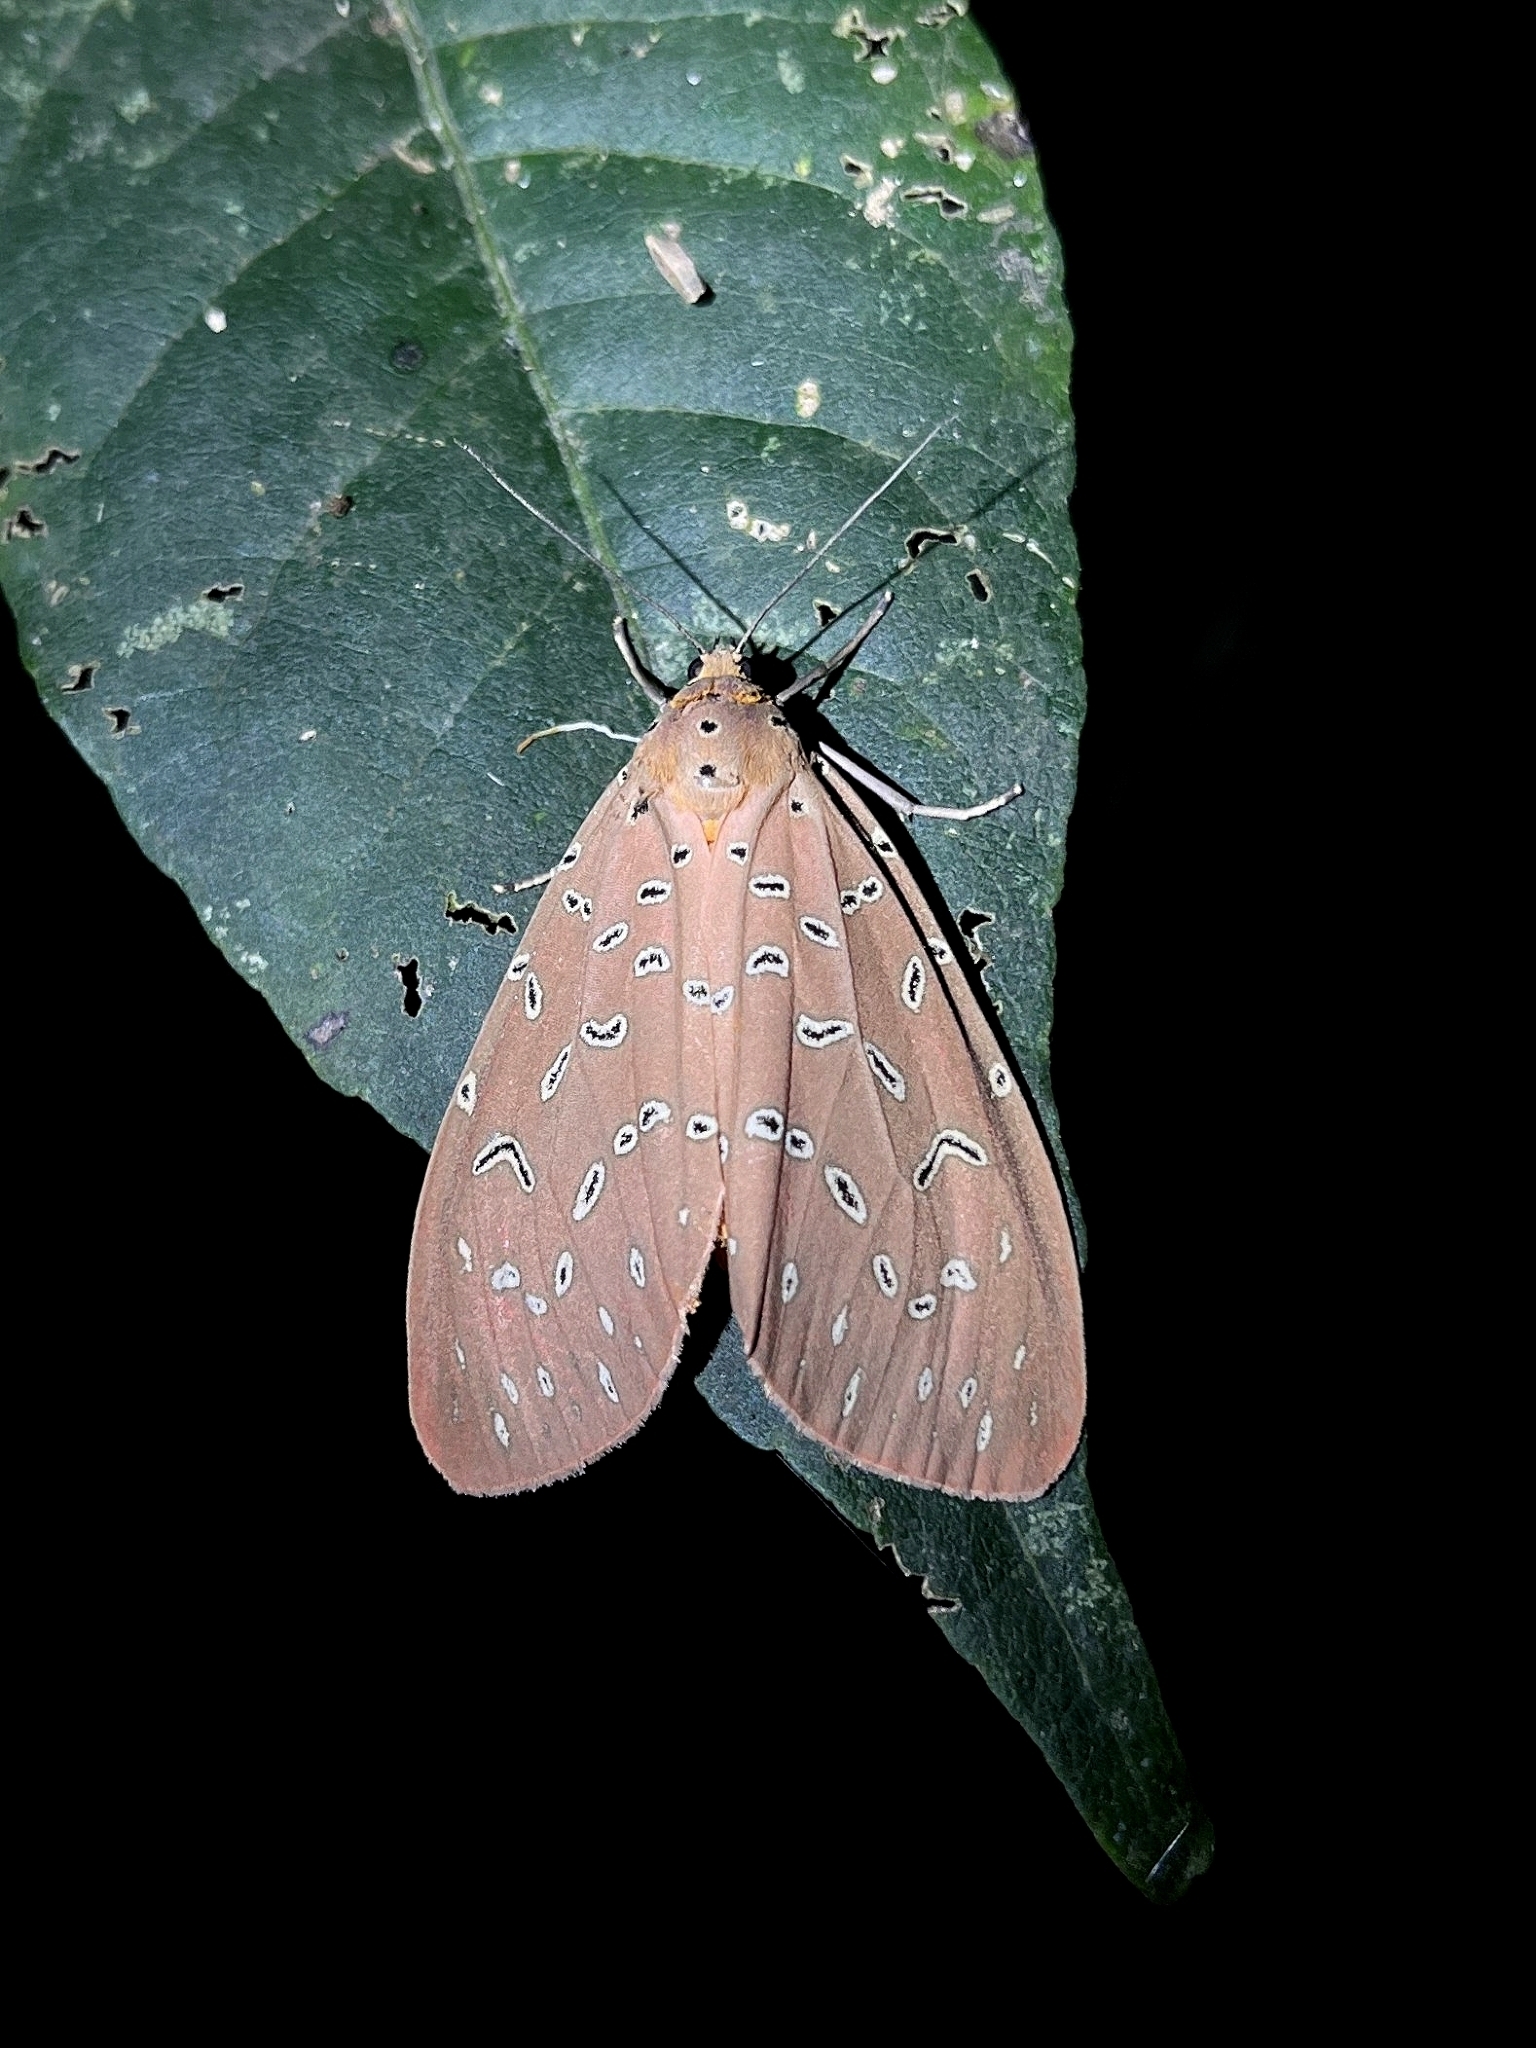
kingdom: Animalia
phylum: Arthropoda
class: Insecta
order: Lepidoptera
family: Erebidae
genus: Mangina
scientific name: Mangina argus
